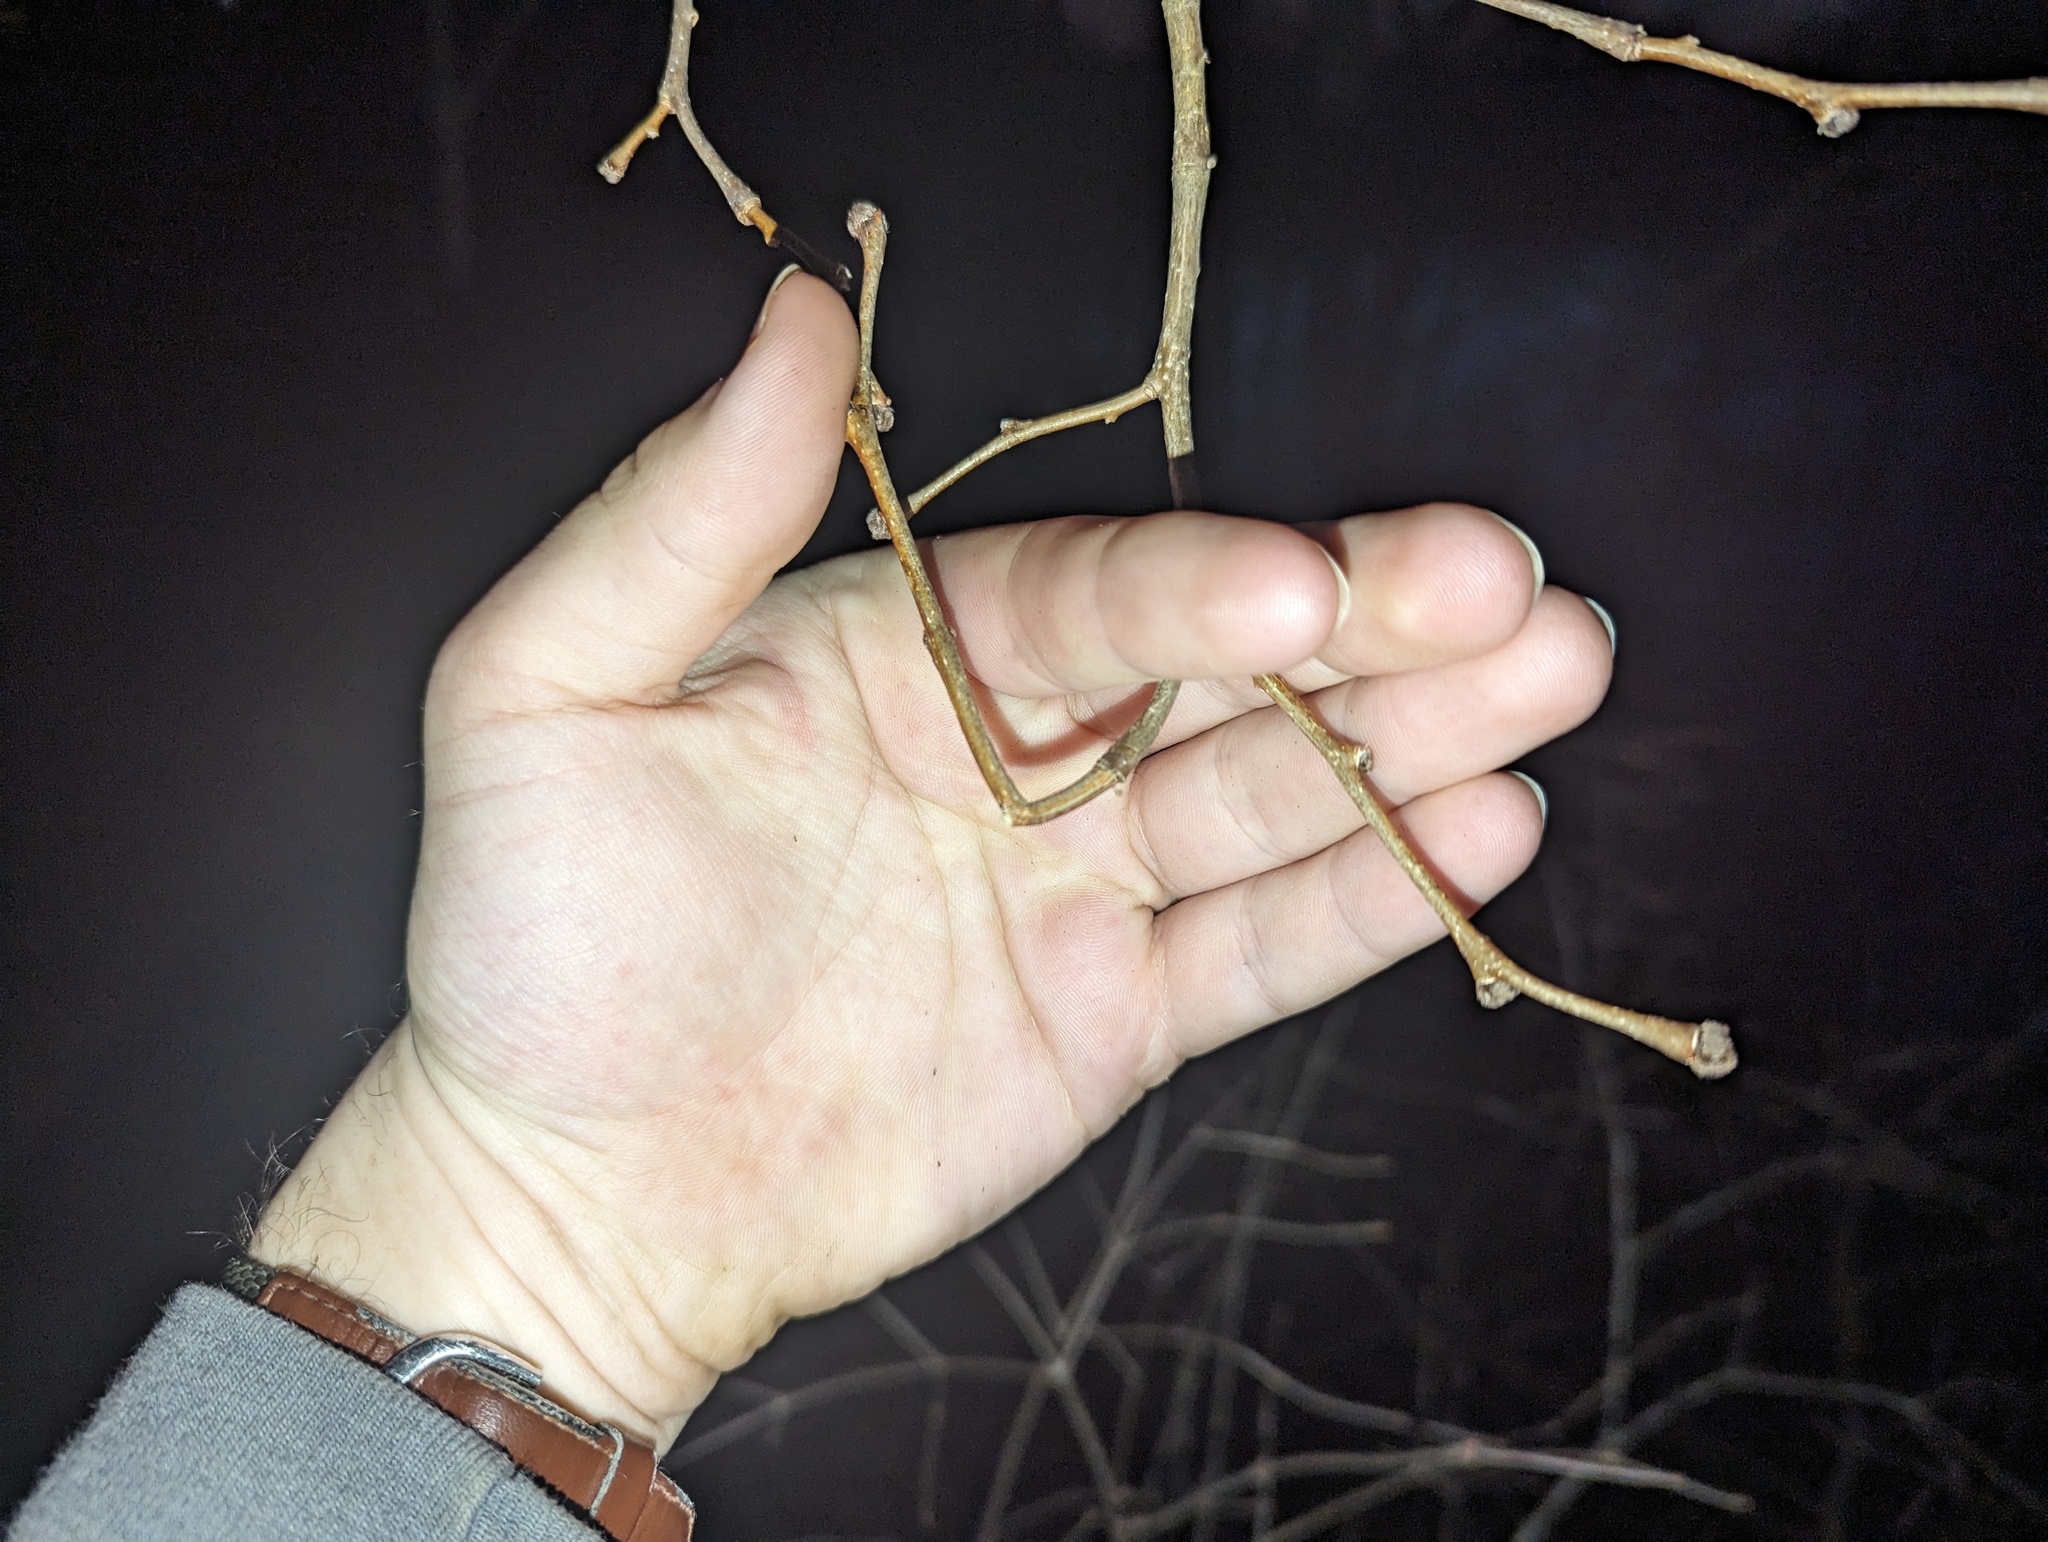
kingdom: Plantae
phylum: Tracheophyta
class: Magnoliopsida
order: Malvales
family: Thymelaeaceae
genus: Dirca
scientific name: Dirca palustris
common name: Leatherwood
